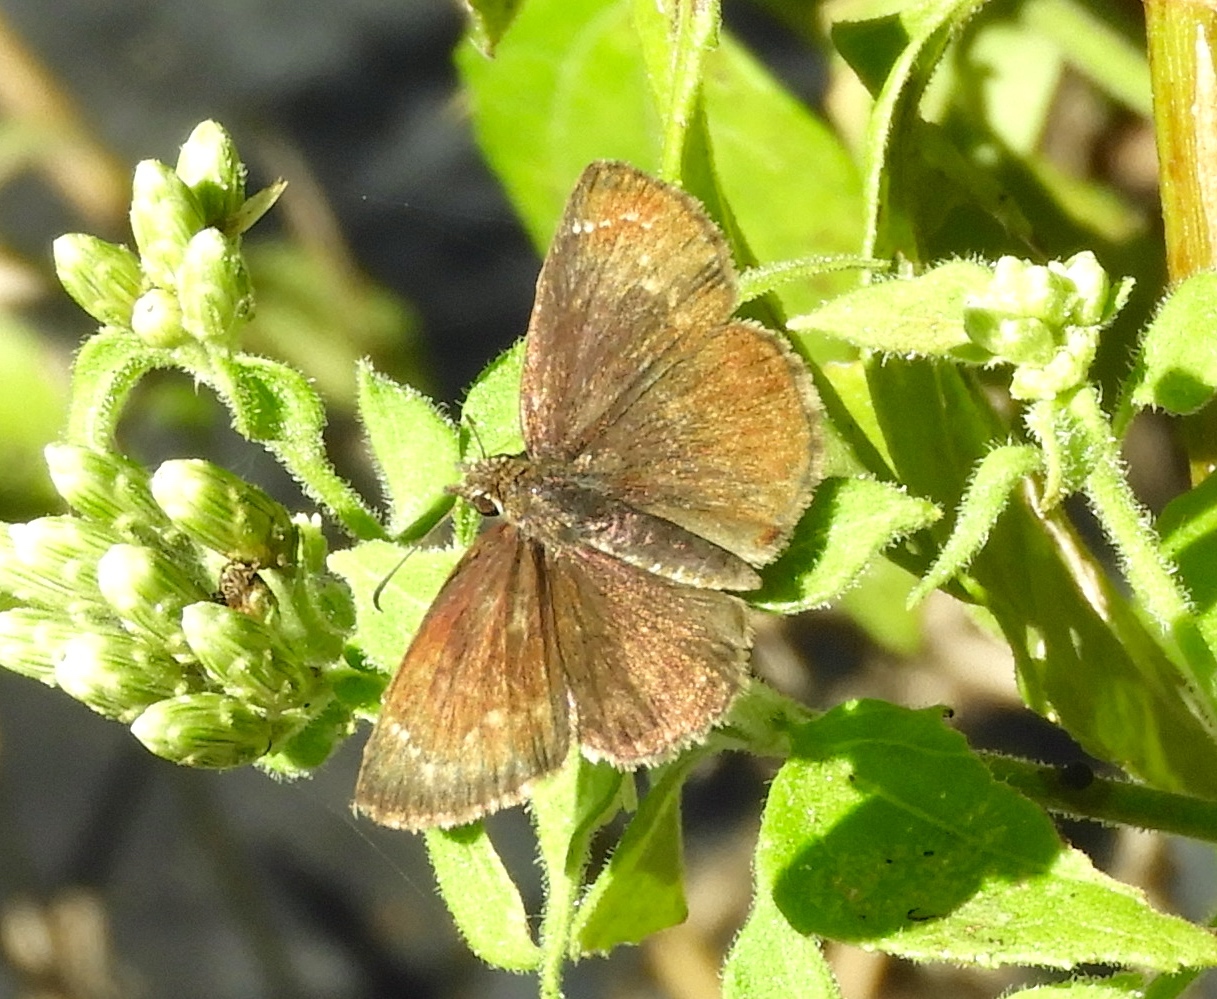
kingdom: Animalia
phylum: Arthropoda
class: Insecta
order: Lepidoptera
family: Hesperiidae
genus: Pyrginae
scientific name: Pyrginae
